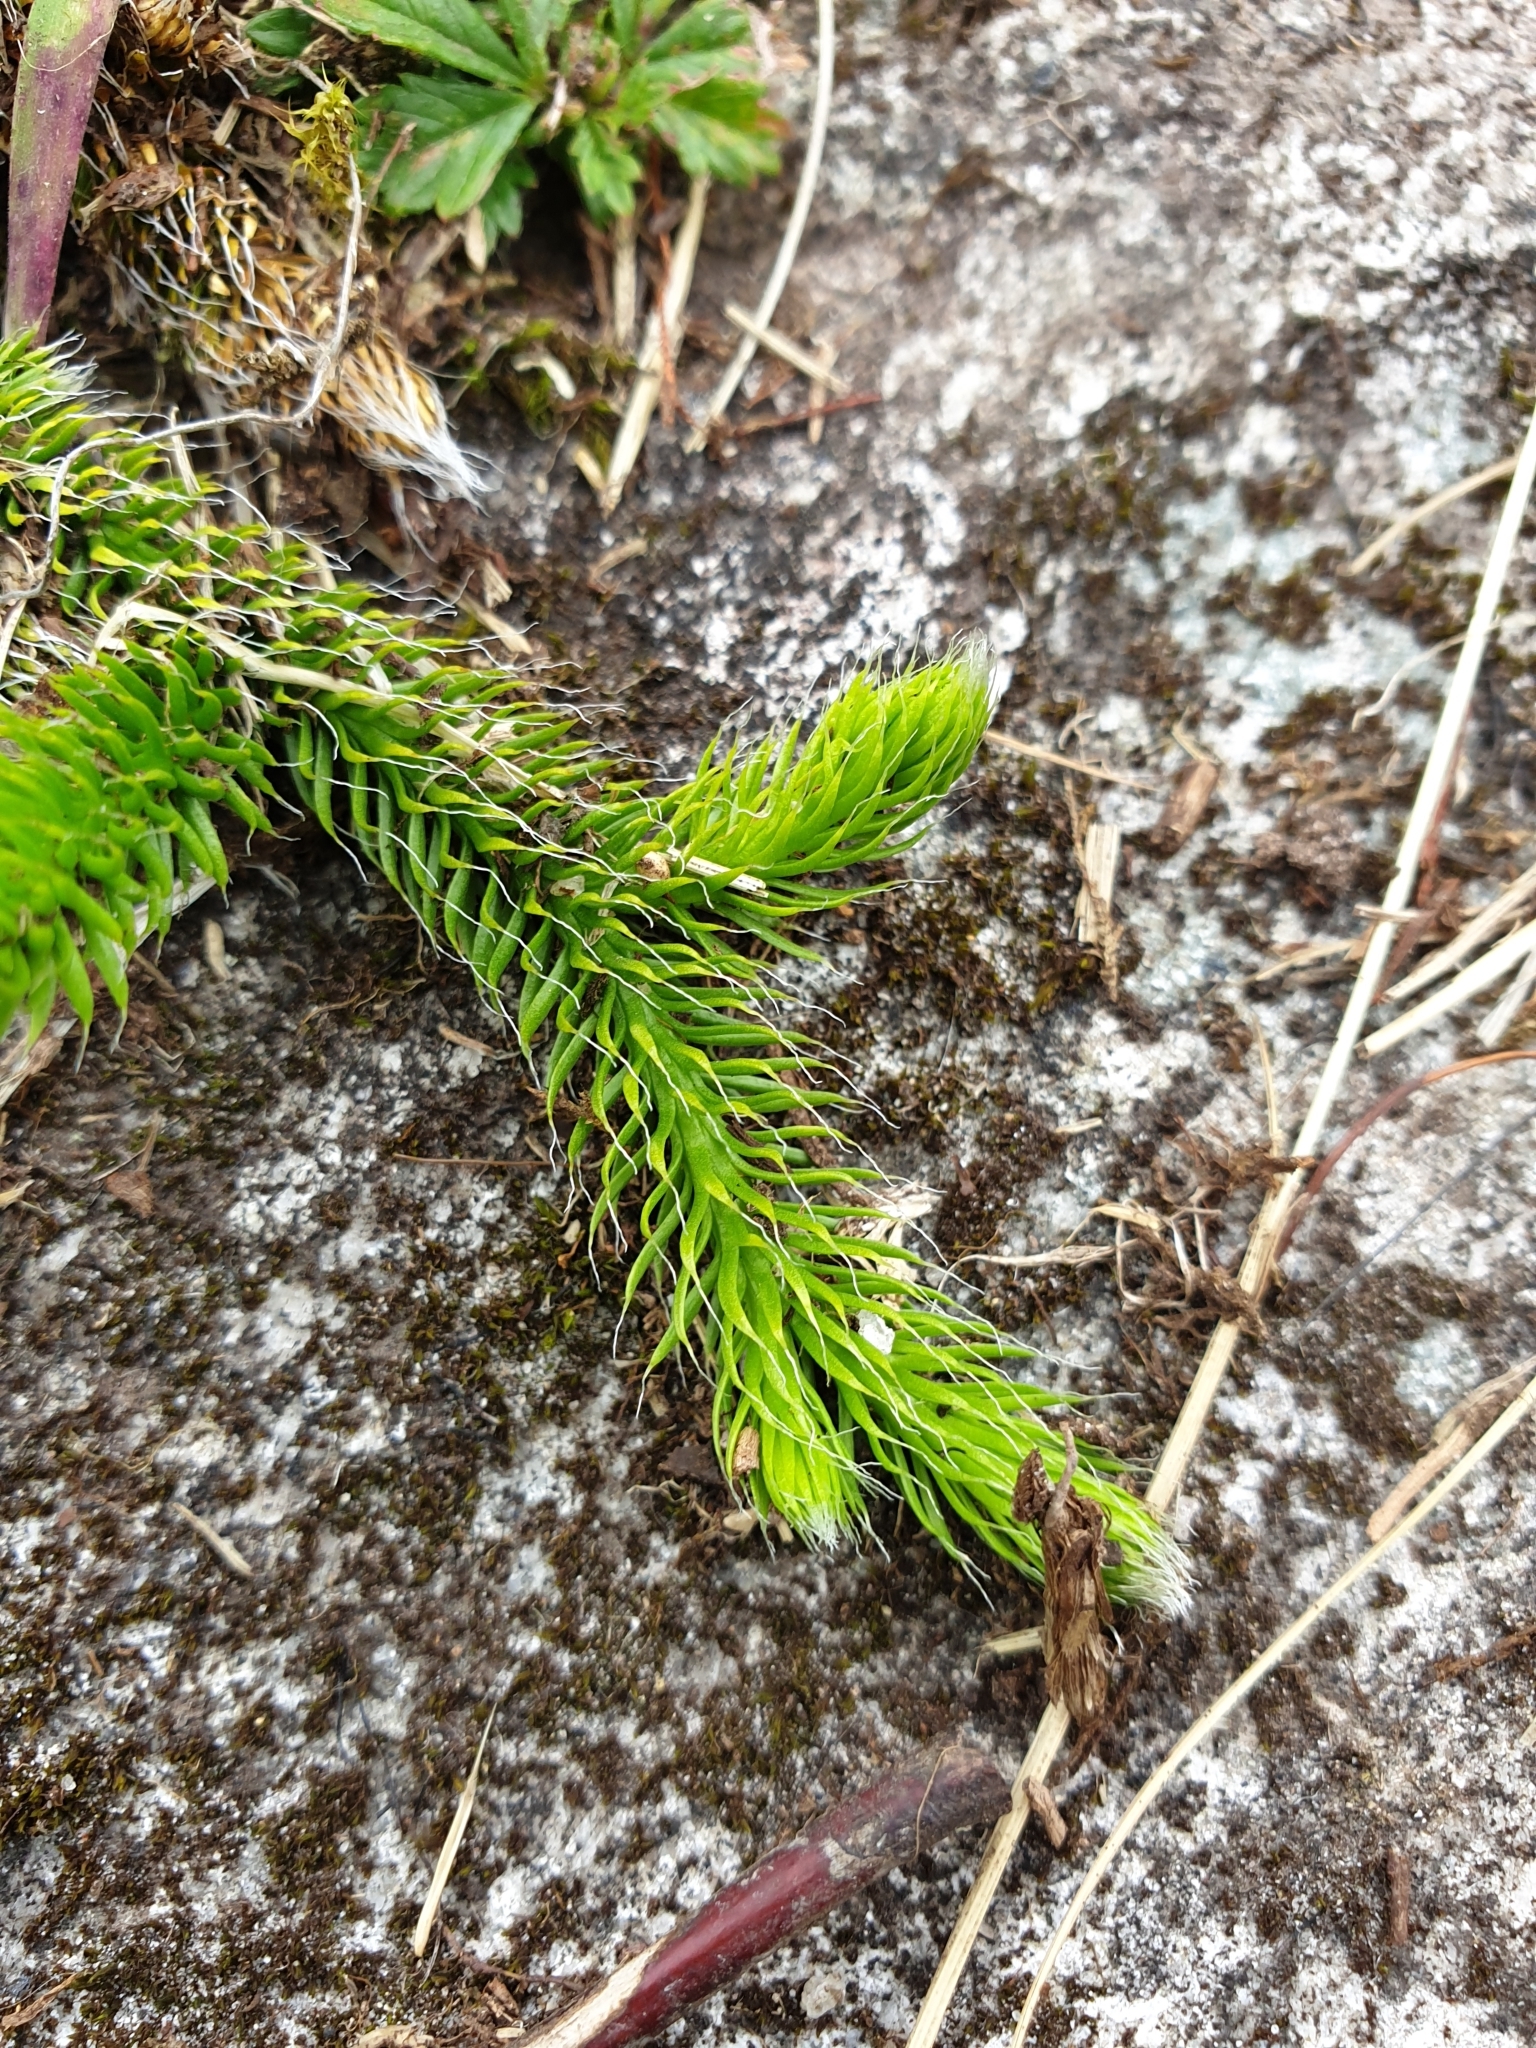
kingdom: Plantae
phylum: Tracheophyta
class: Lycopodiopsida
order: Lycopodiales
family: Lycopodiaceae
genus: Lycopodium
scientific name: Lycopodium clavatum
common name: Stag's-horn clubmoss
